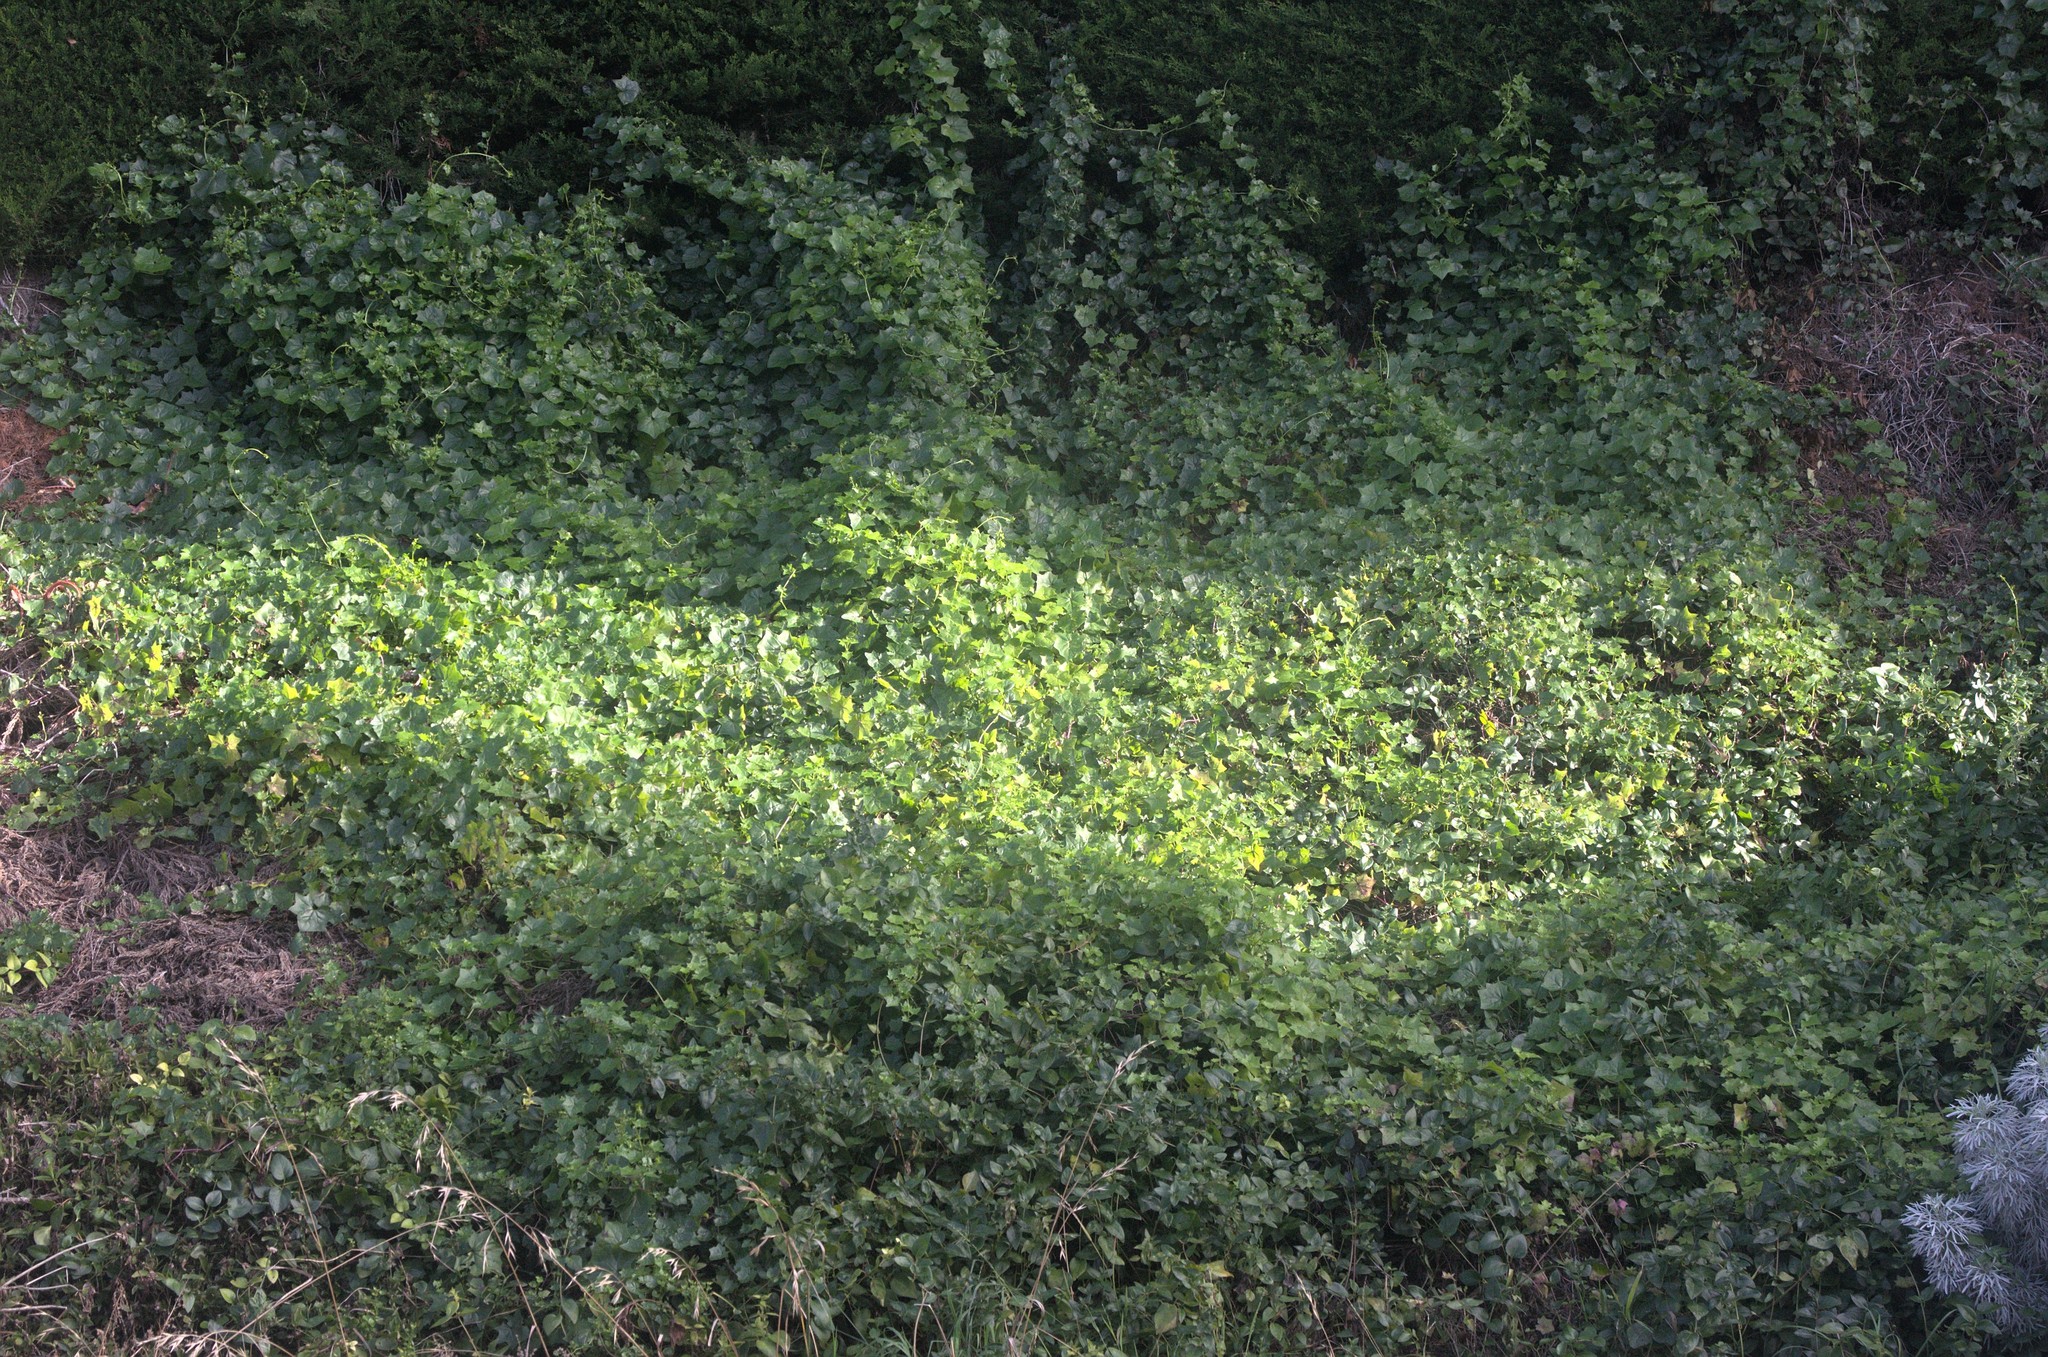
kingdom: Plantae
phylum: Tracheophyta
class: Magnoliopsida
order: Asterales
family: Asteraceae
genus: Delairea
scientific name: Delairea odorata
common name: Cape-ivy
